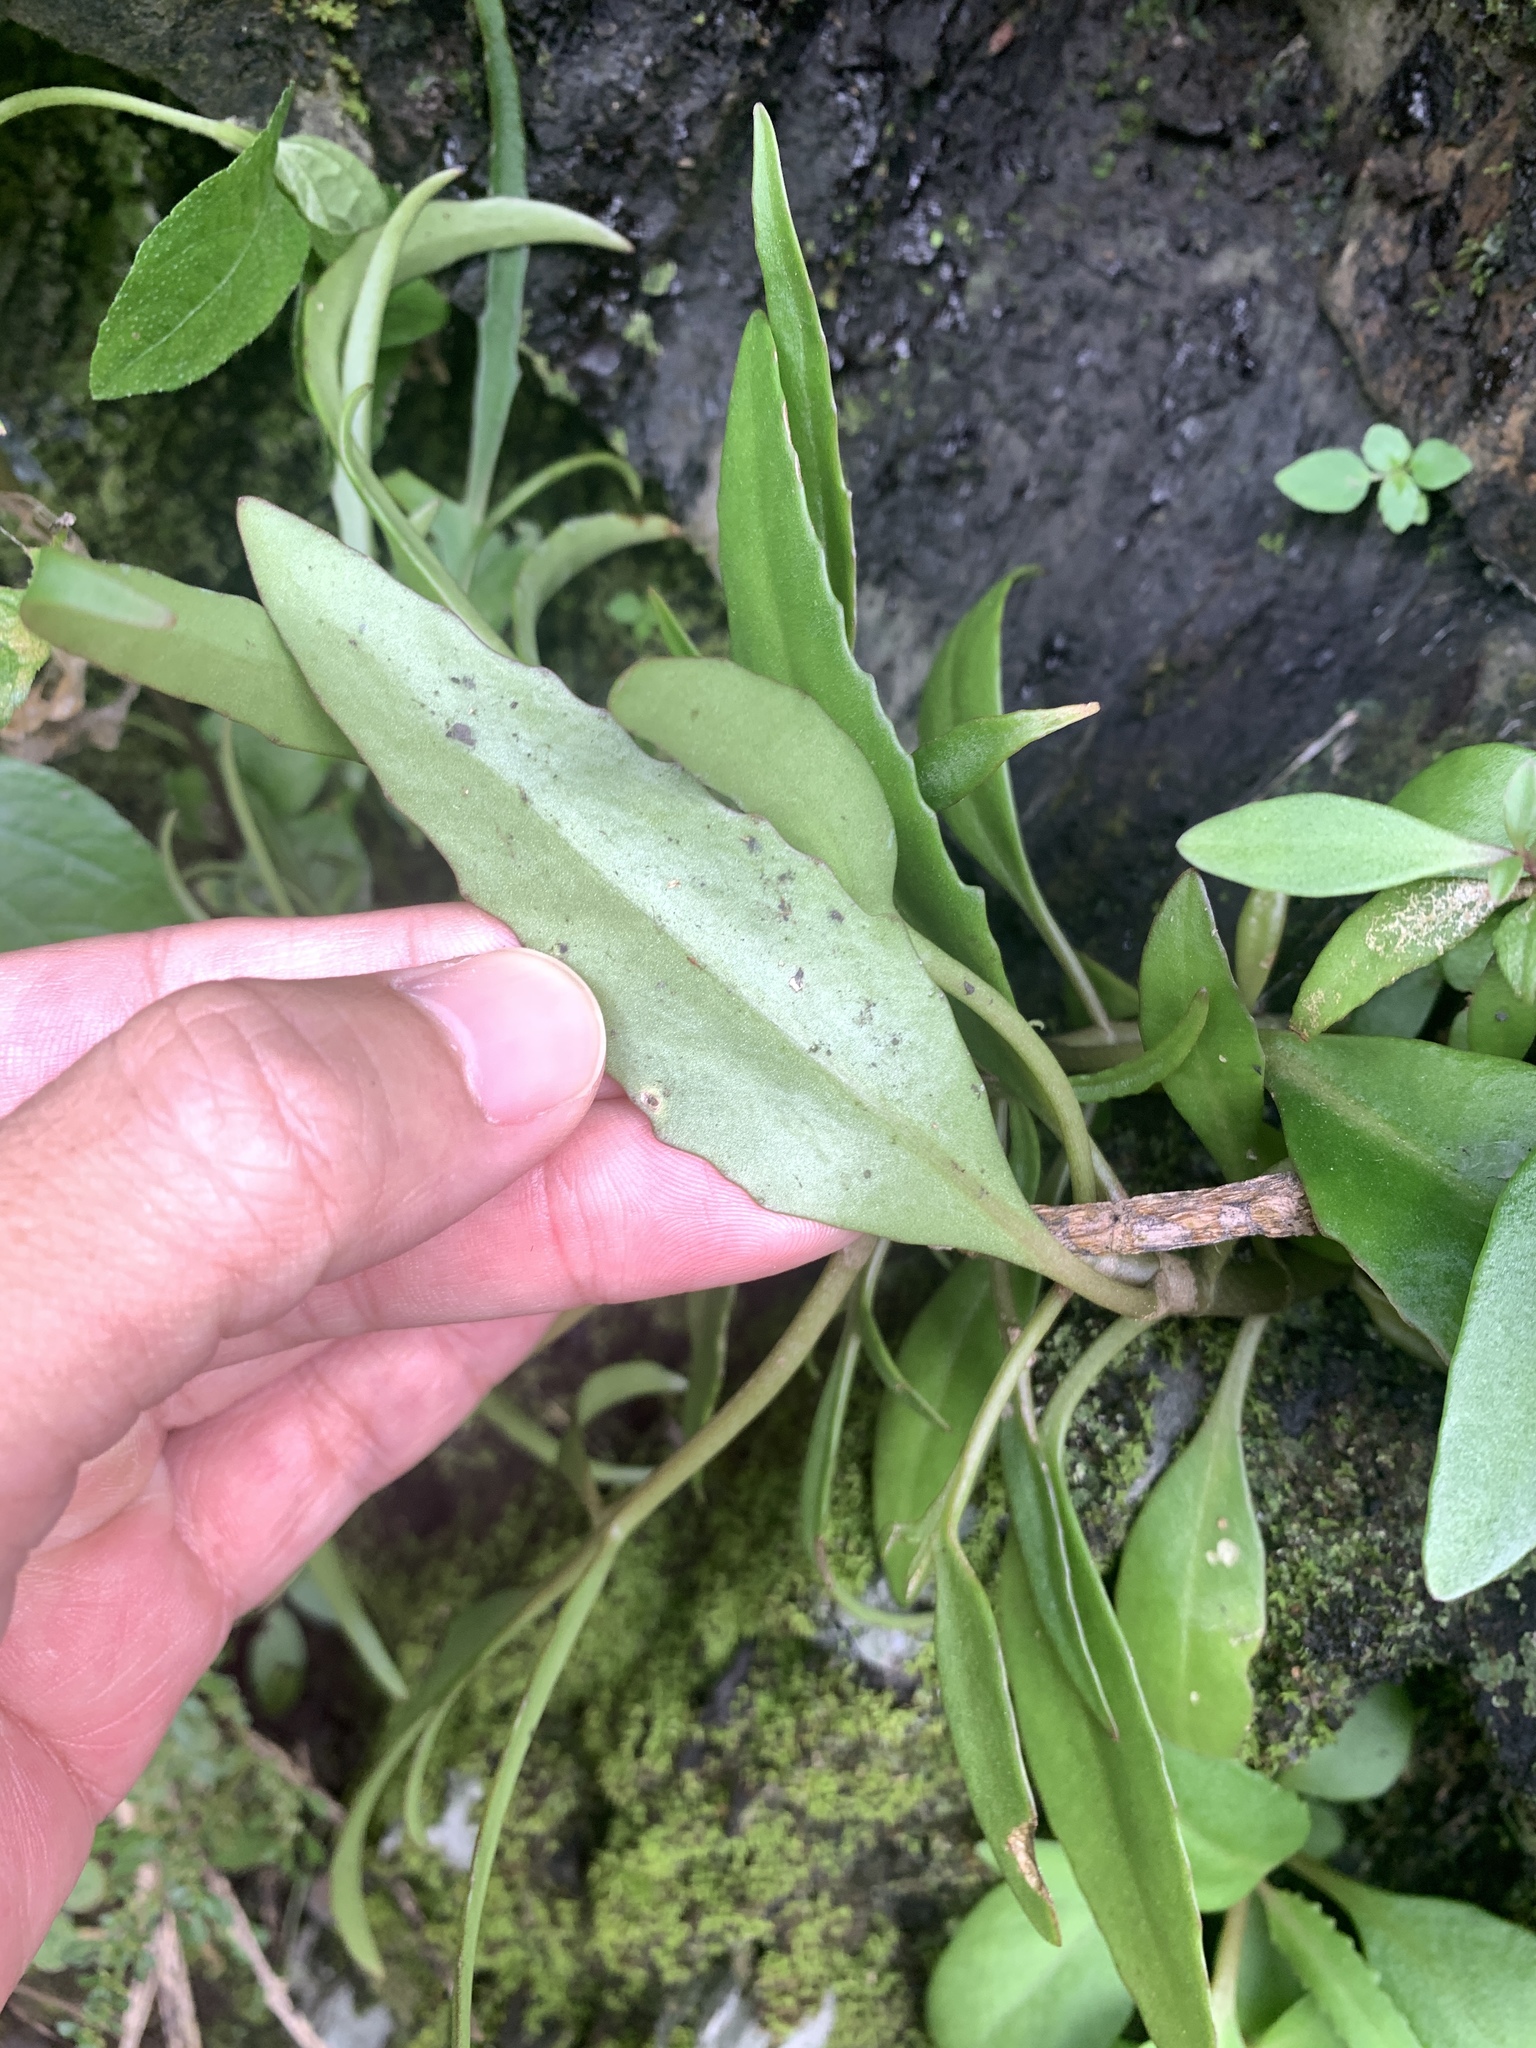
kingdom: Plantae
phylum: Tracheophyta
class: Magnoliopsida
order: Saxifragales
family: Crassulaceae
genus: Kalanchoe
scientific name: Kalanchoe ceratophylla
